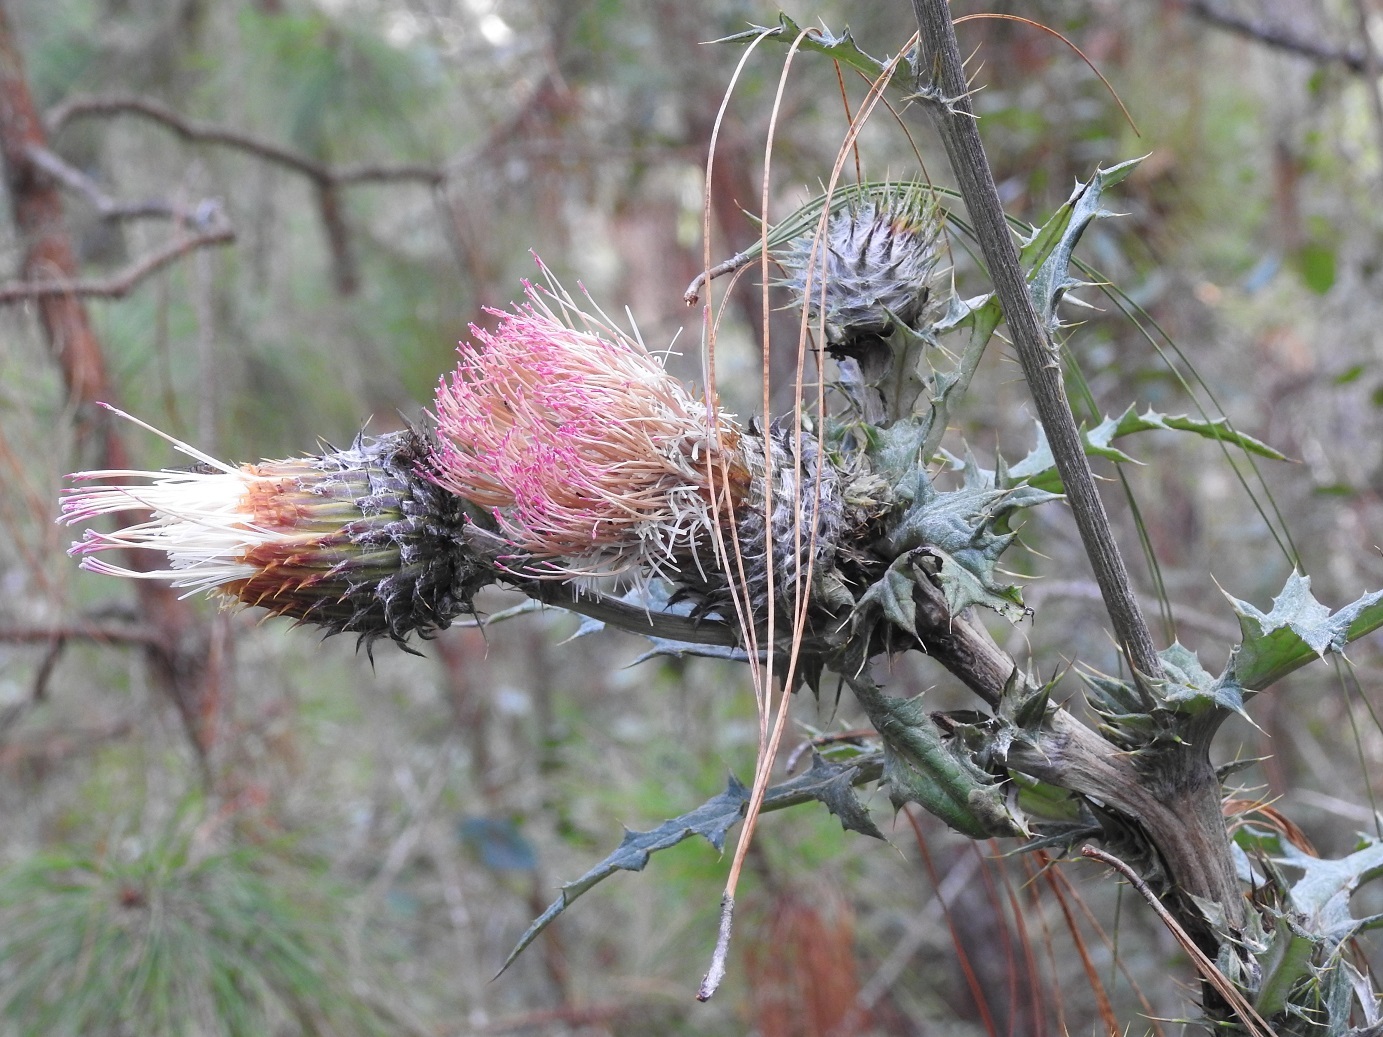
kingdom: Plantae
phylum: Tracheophyta
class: Magnoliopsida
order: Asterales
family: Asteraceae
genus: Cirsium
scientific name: Cirsium subcoriaceum
